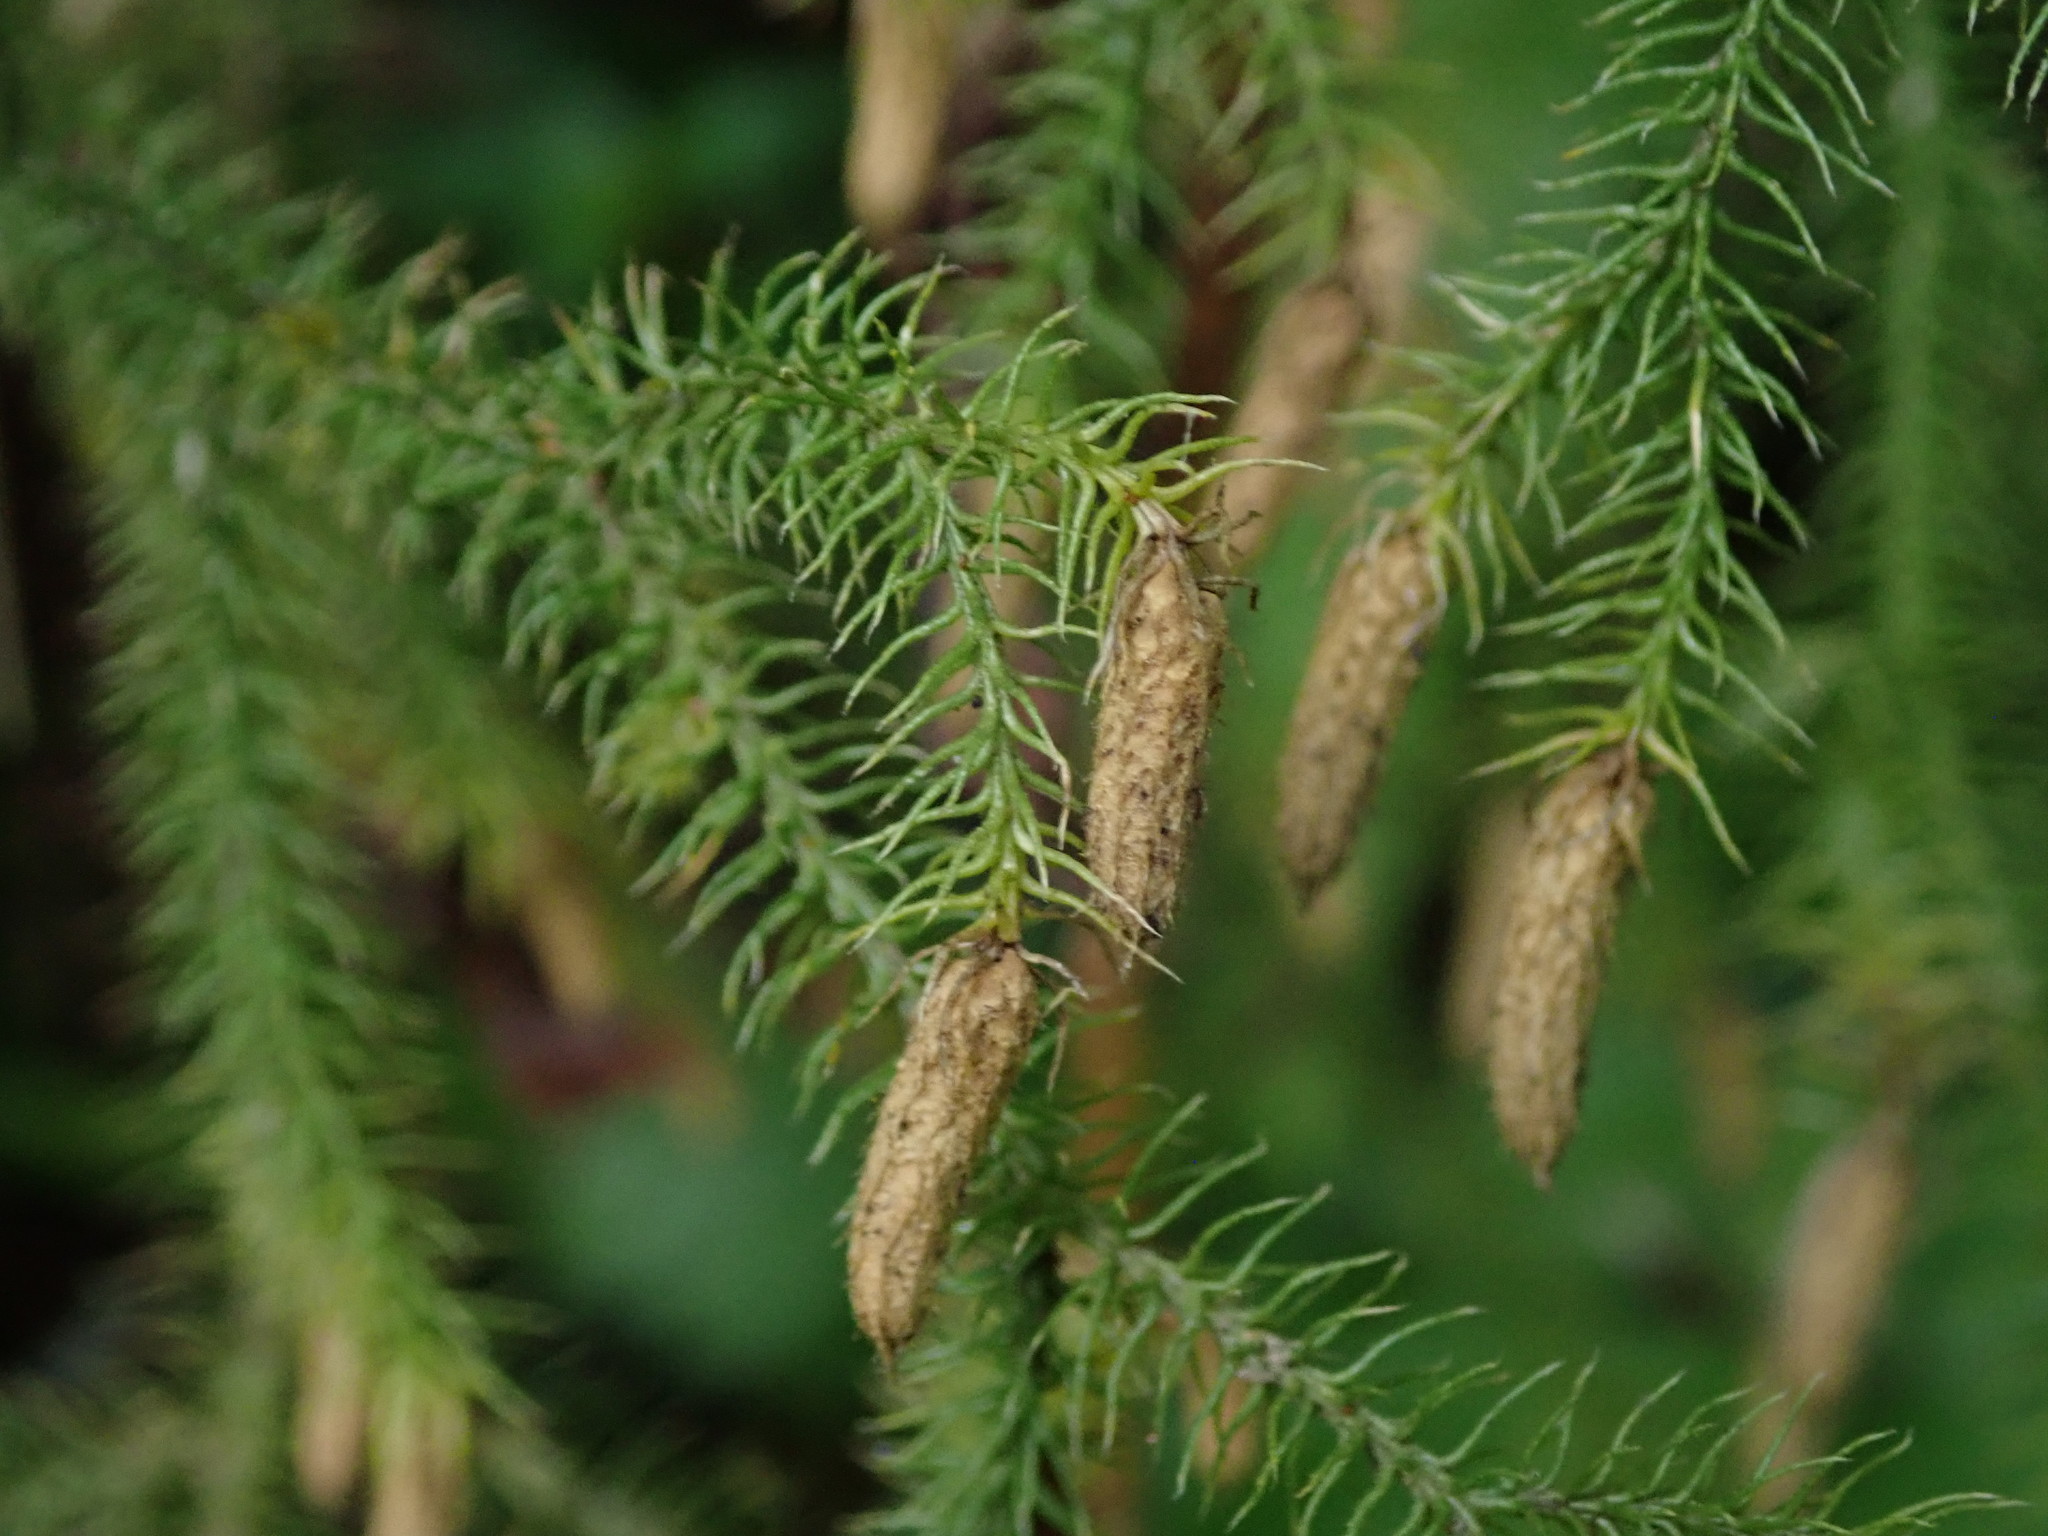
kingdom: Plantae
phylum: Tracheophyta
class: Lycopodiopsida
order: Lycopodiales
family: Lycopodiaceae
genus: Palhinhaea
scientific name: Palhinhaea cernua
